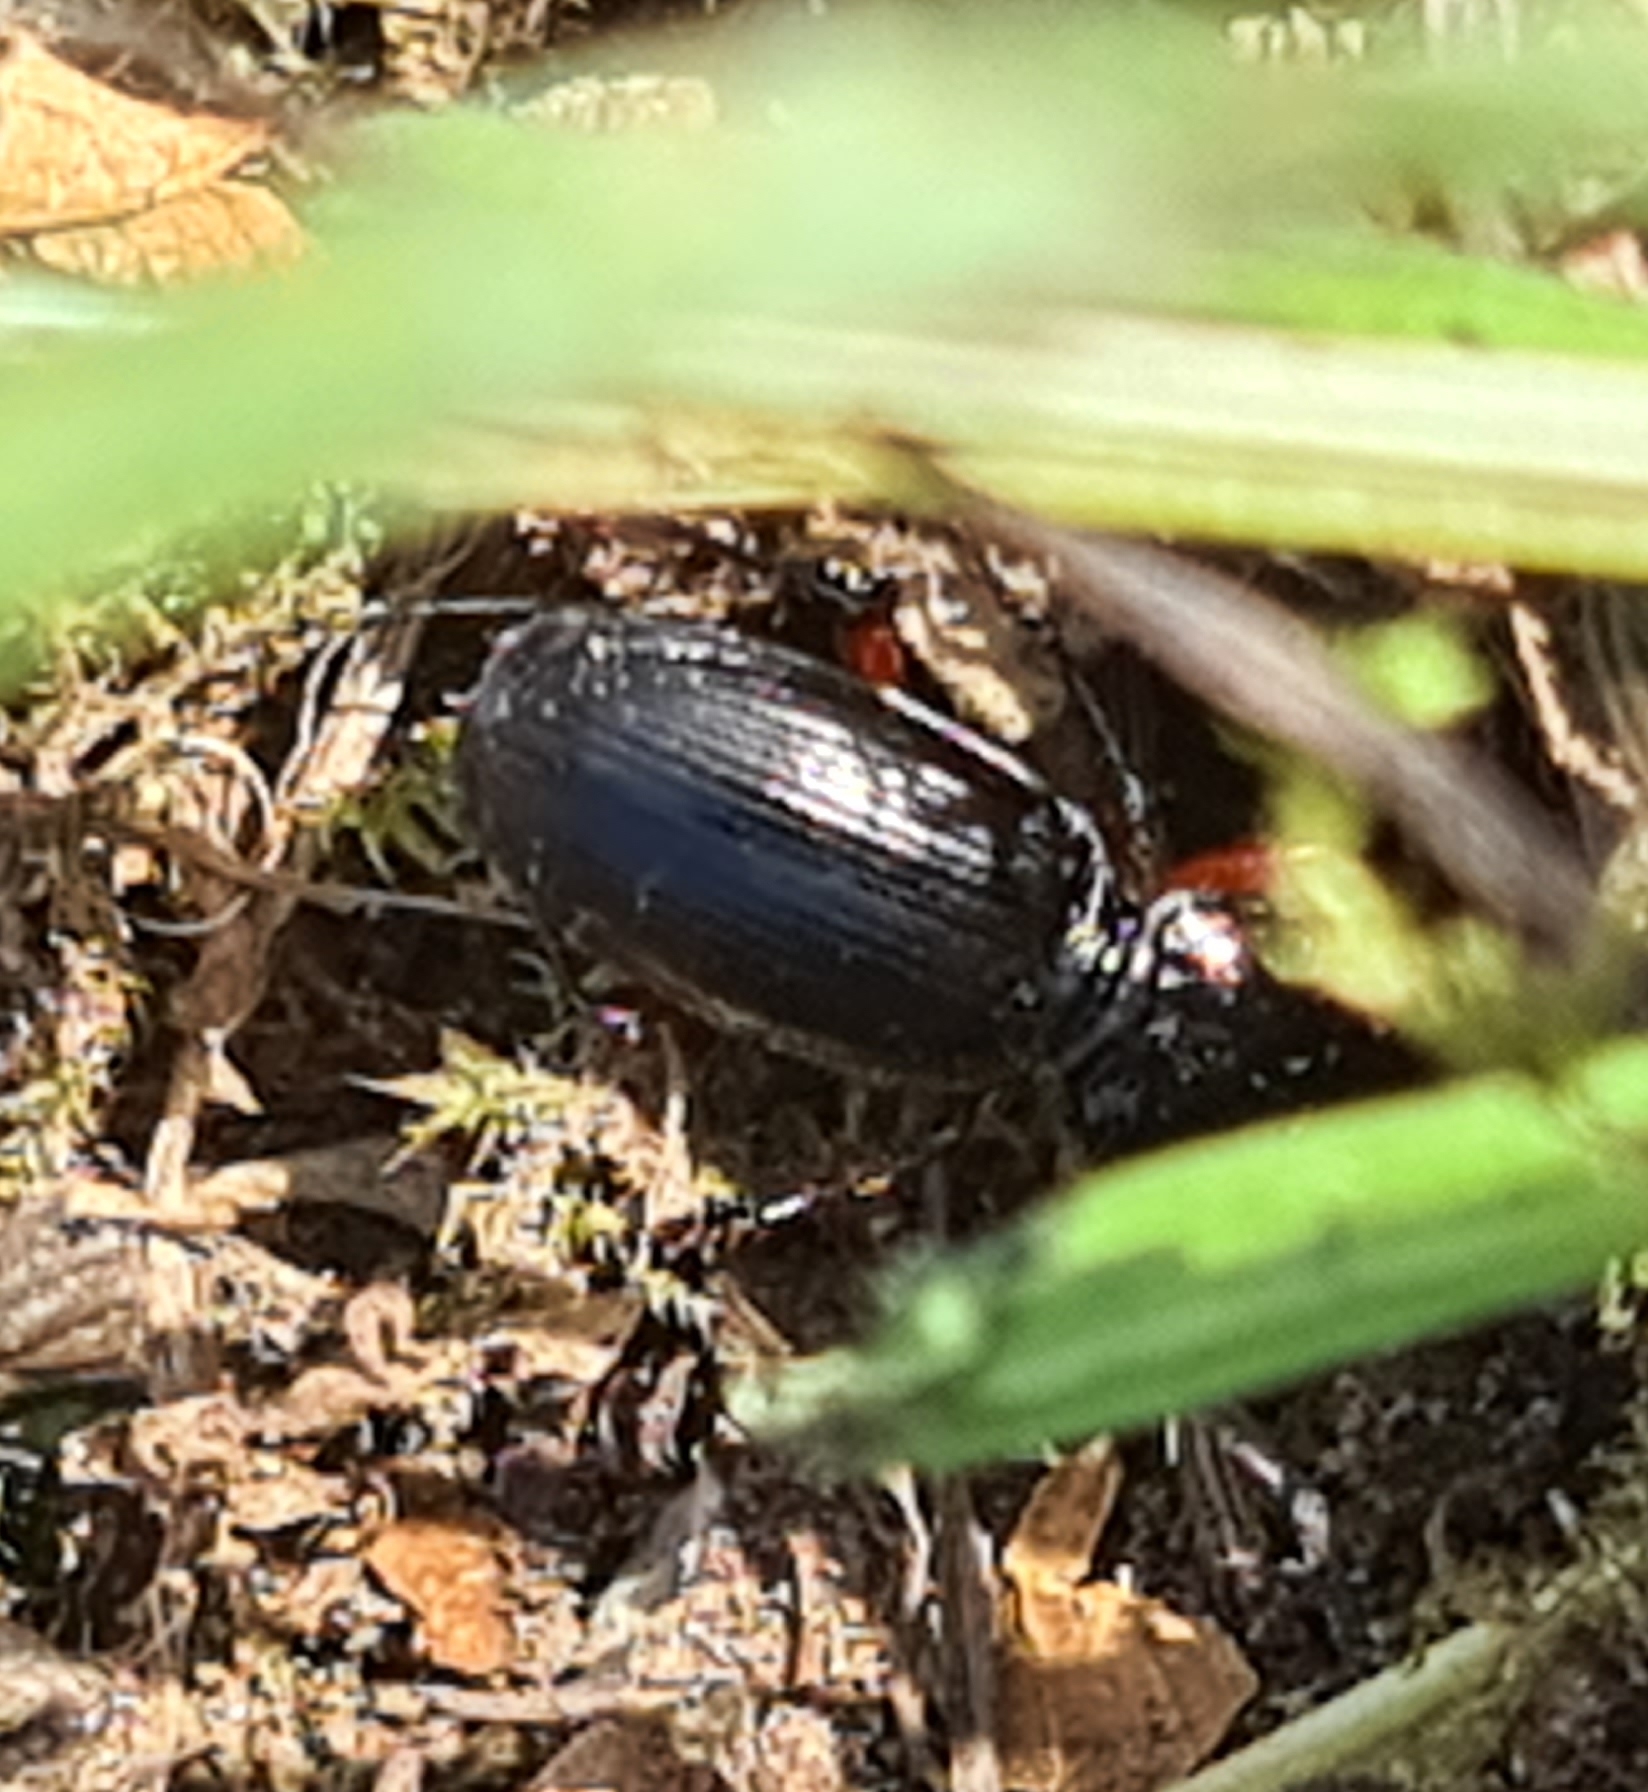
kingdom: Animalia
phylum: Arthropoda
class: Insecta
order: Coleoptera
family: Carabidae
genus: Pterostichus
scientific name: Pterostichus madidus
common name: Black clock
